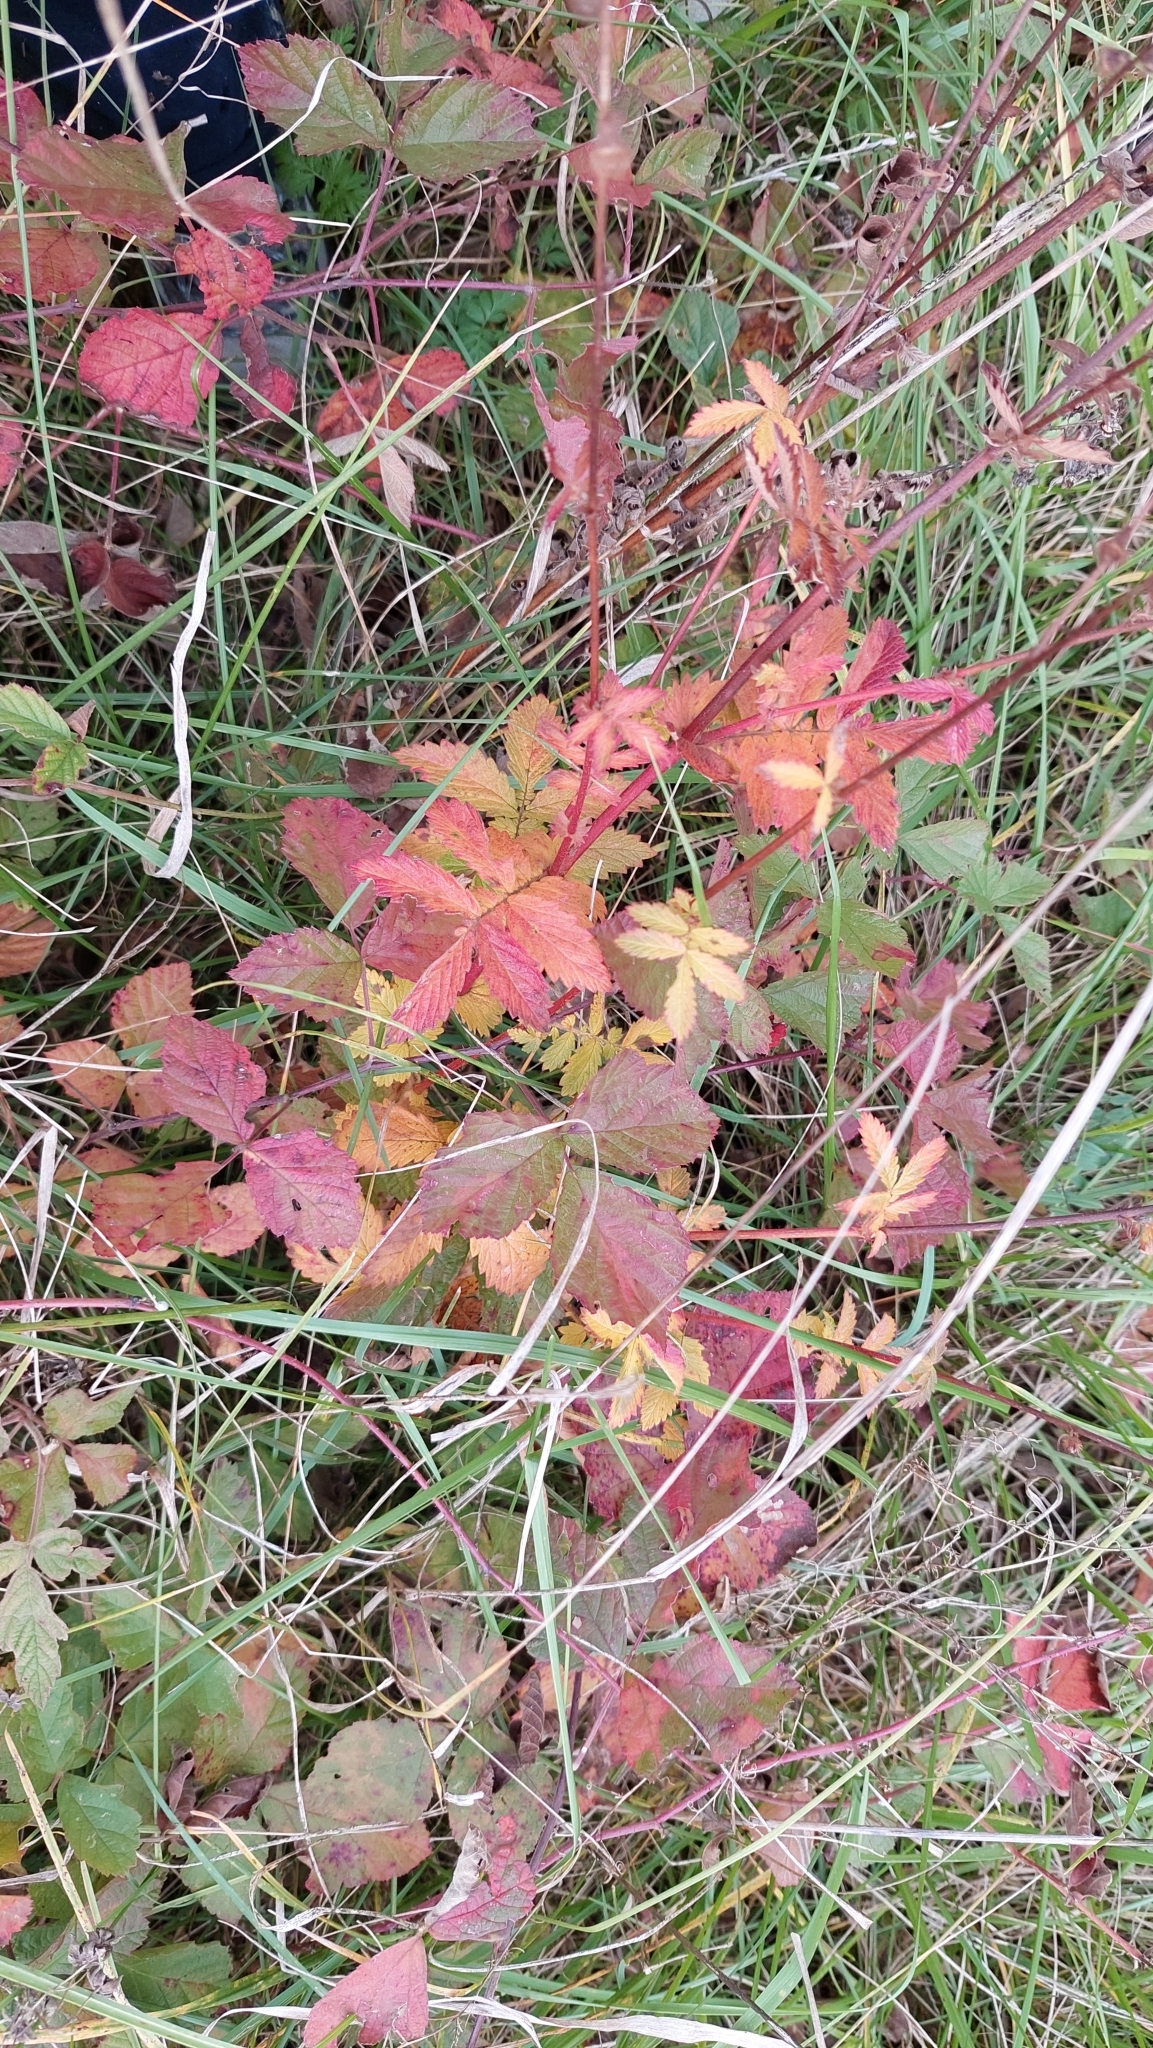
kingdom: Plantae
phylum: Tracheophyta
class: Magnoliopsida
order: Rosales
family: Rosaceae
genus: Agrimonia
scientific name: Agrimonia eupatoria
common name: Agrimony
